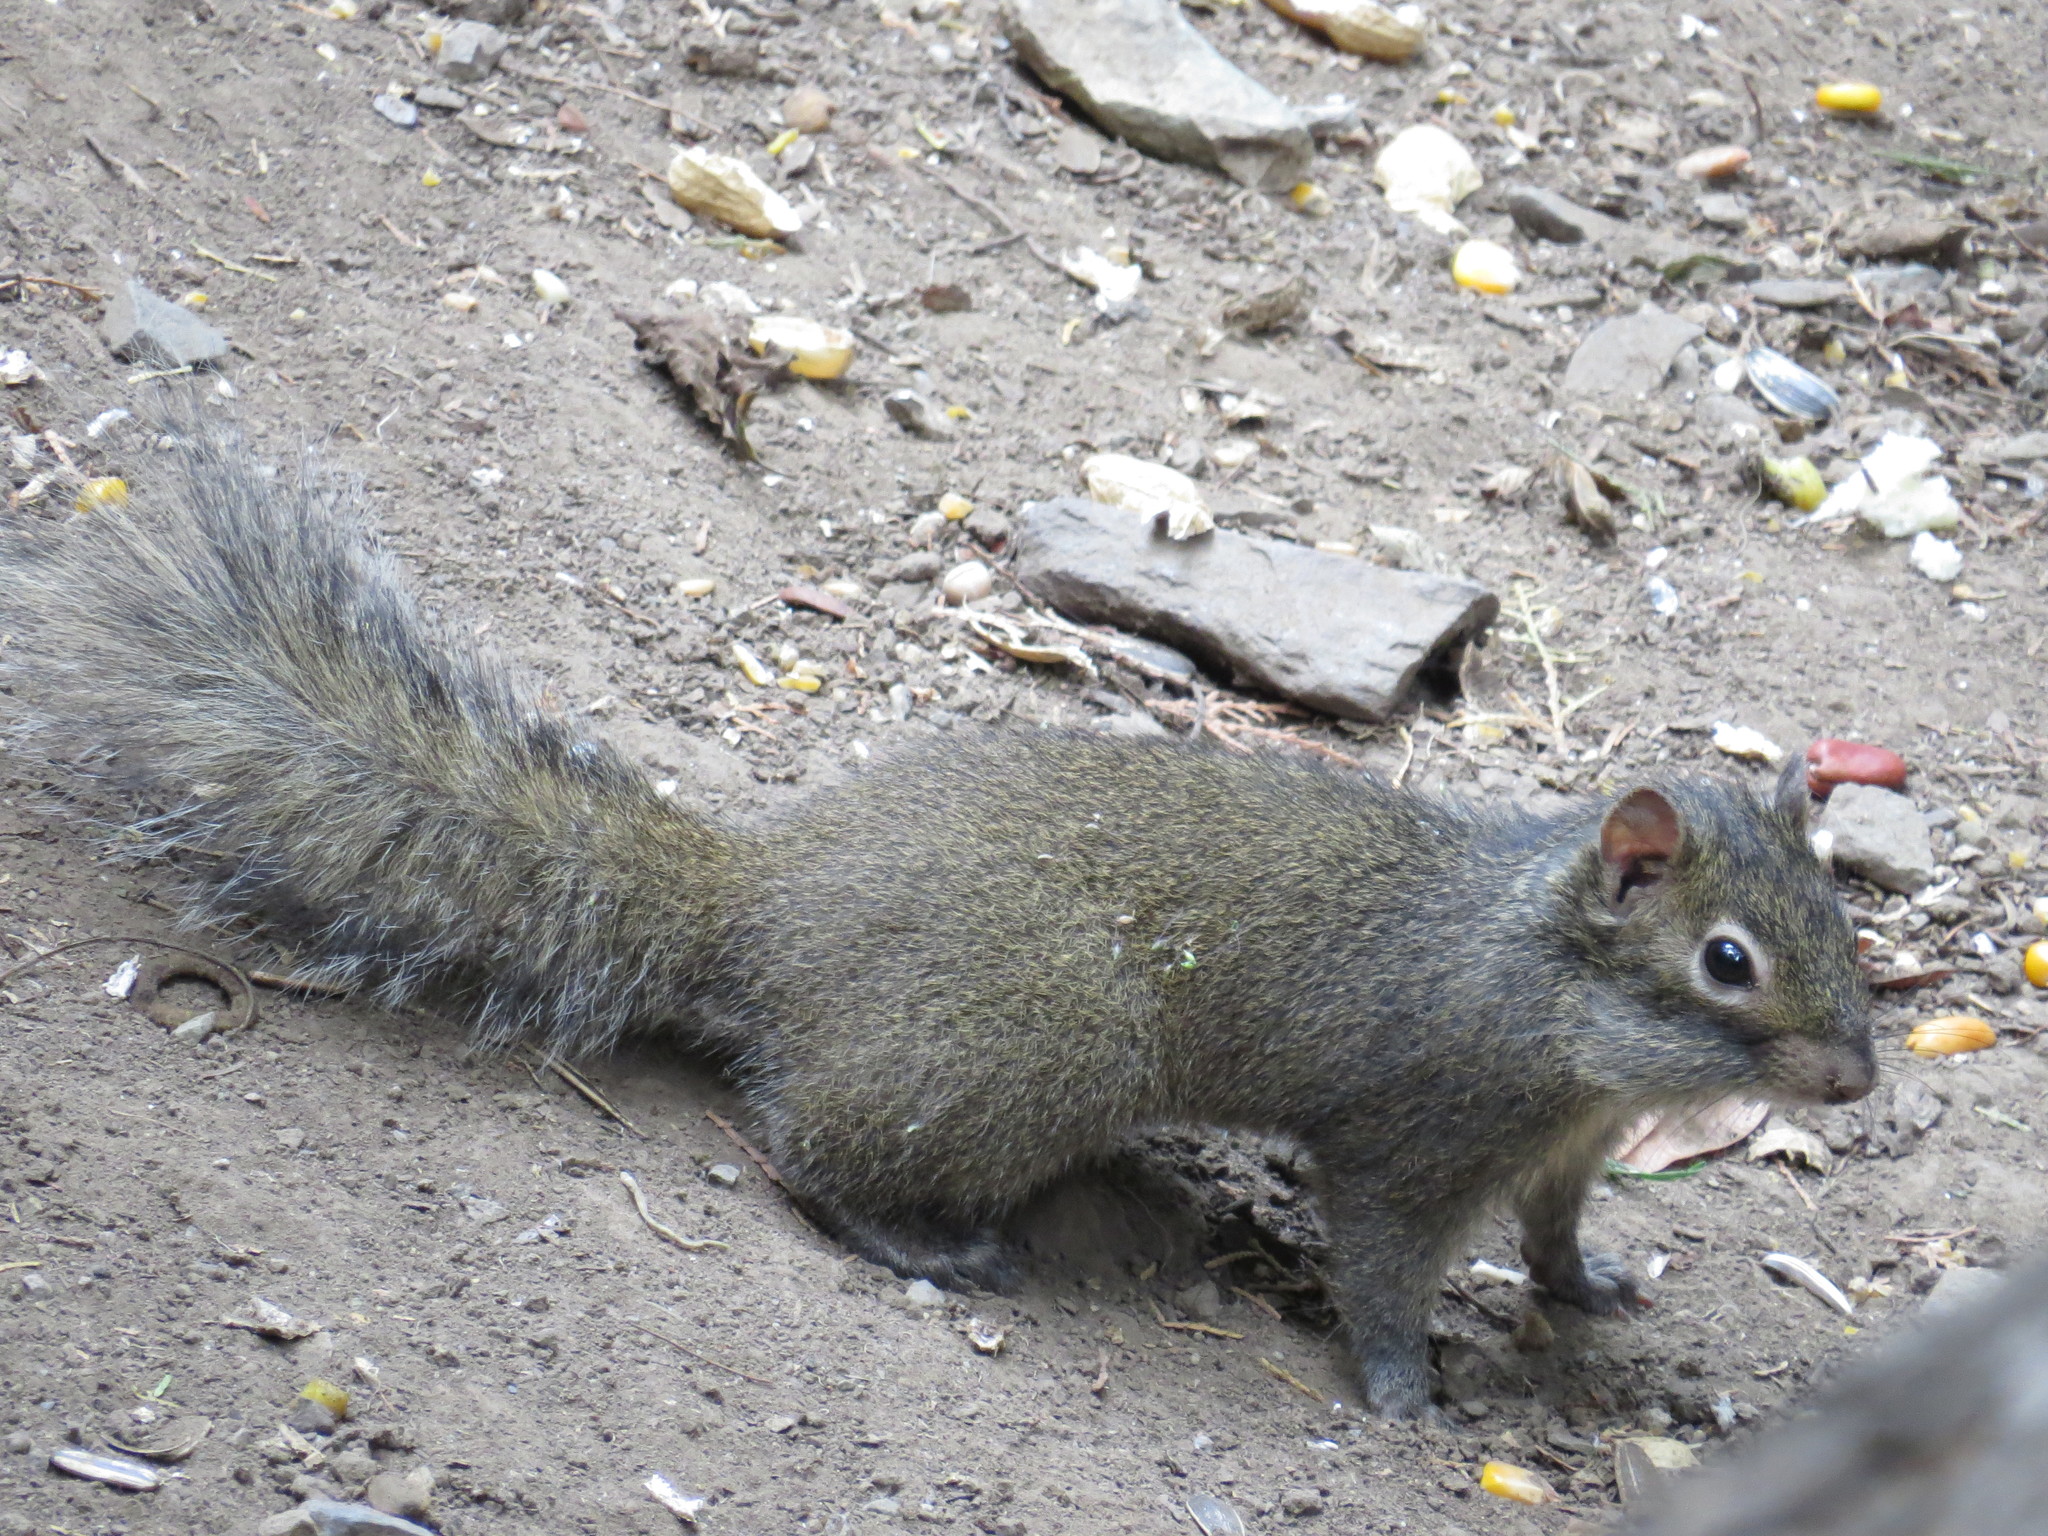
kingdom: Animalia
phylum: Chordata
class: Mammalia
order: Rodentia
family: Sciuridae
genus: Sciurotamias
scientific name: Sciurotamias davidianus
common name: Père david's rock squirrel
